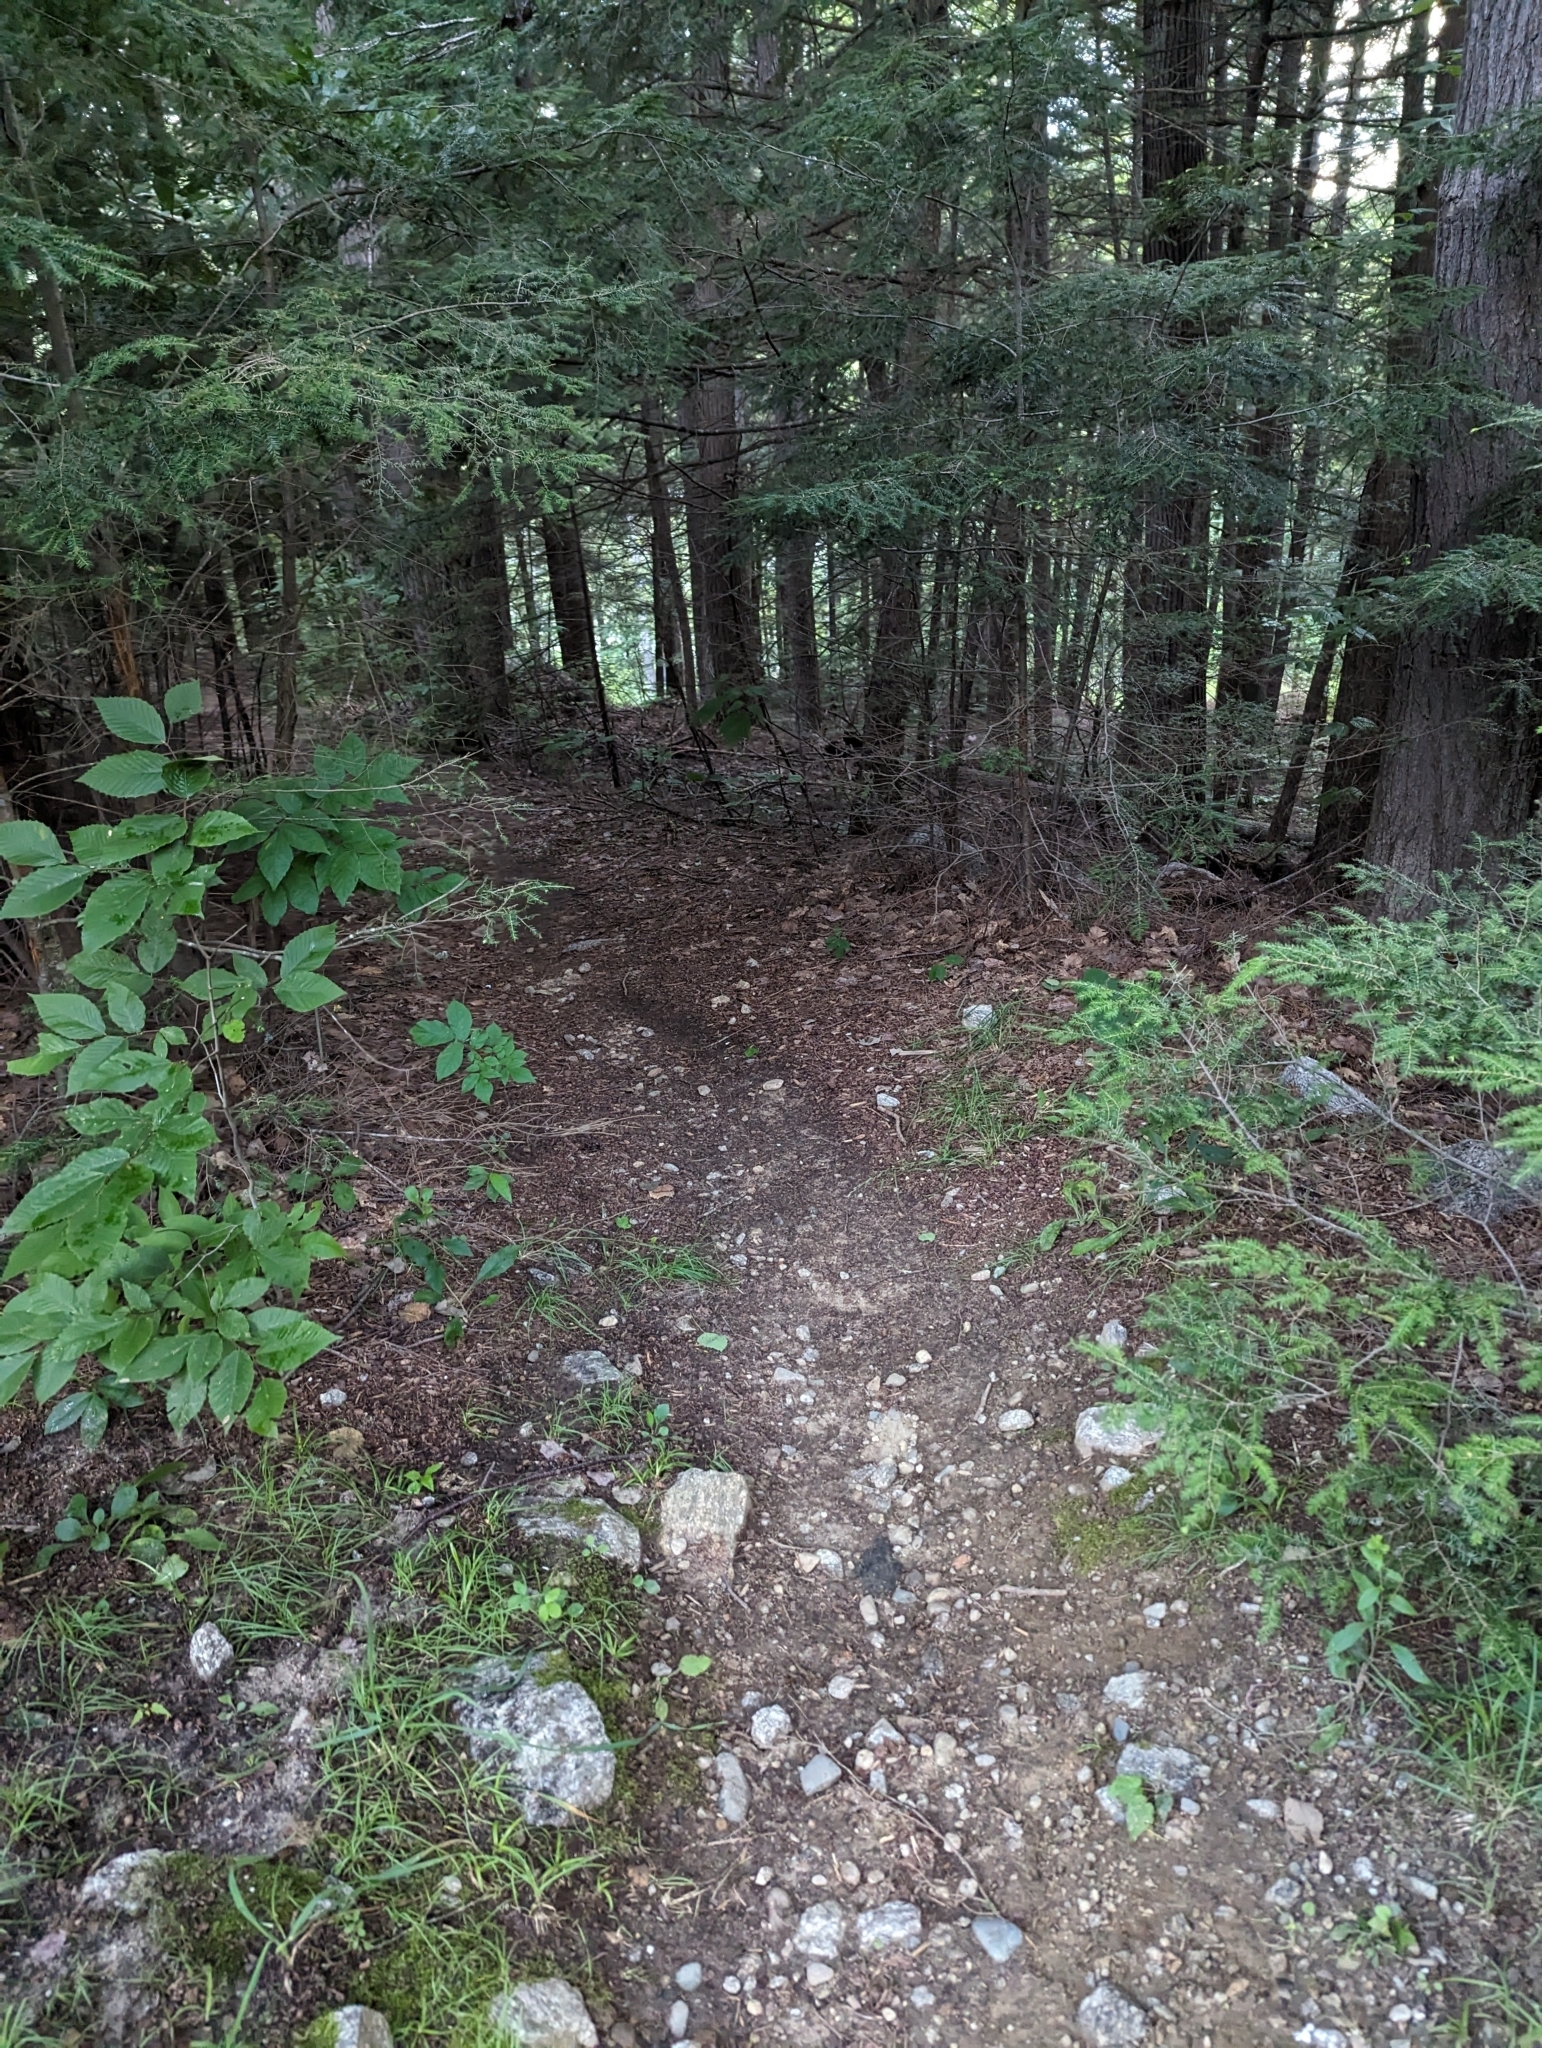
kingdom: Plantae
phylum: Tracheophyta
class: Pinopsida
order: Pinales
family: Pinaceae
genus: Tsuga
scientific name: Tsuga canadensis
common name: Eastern hemlock
